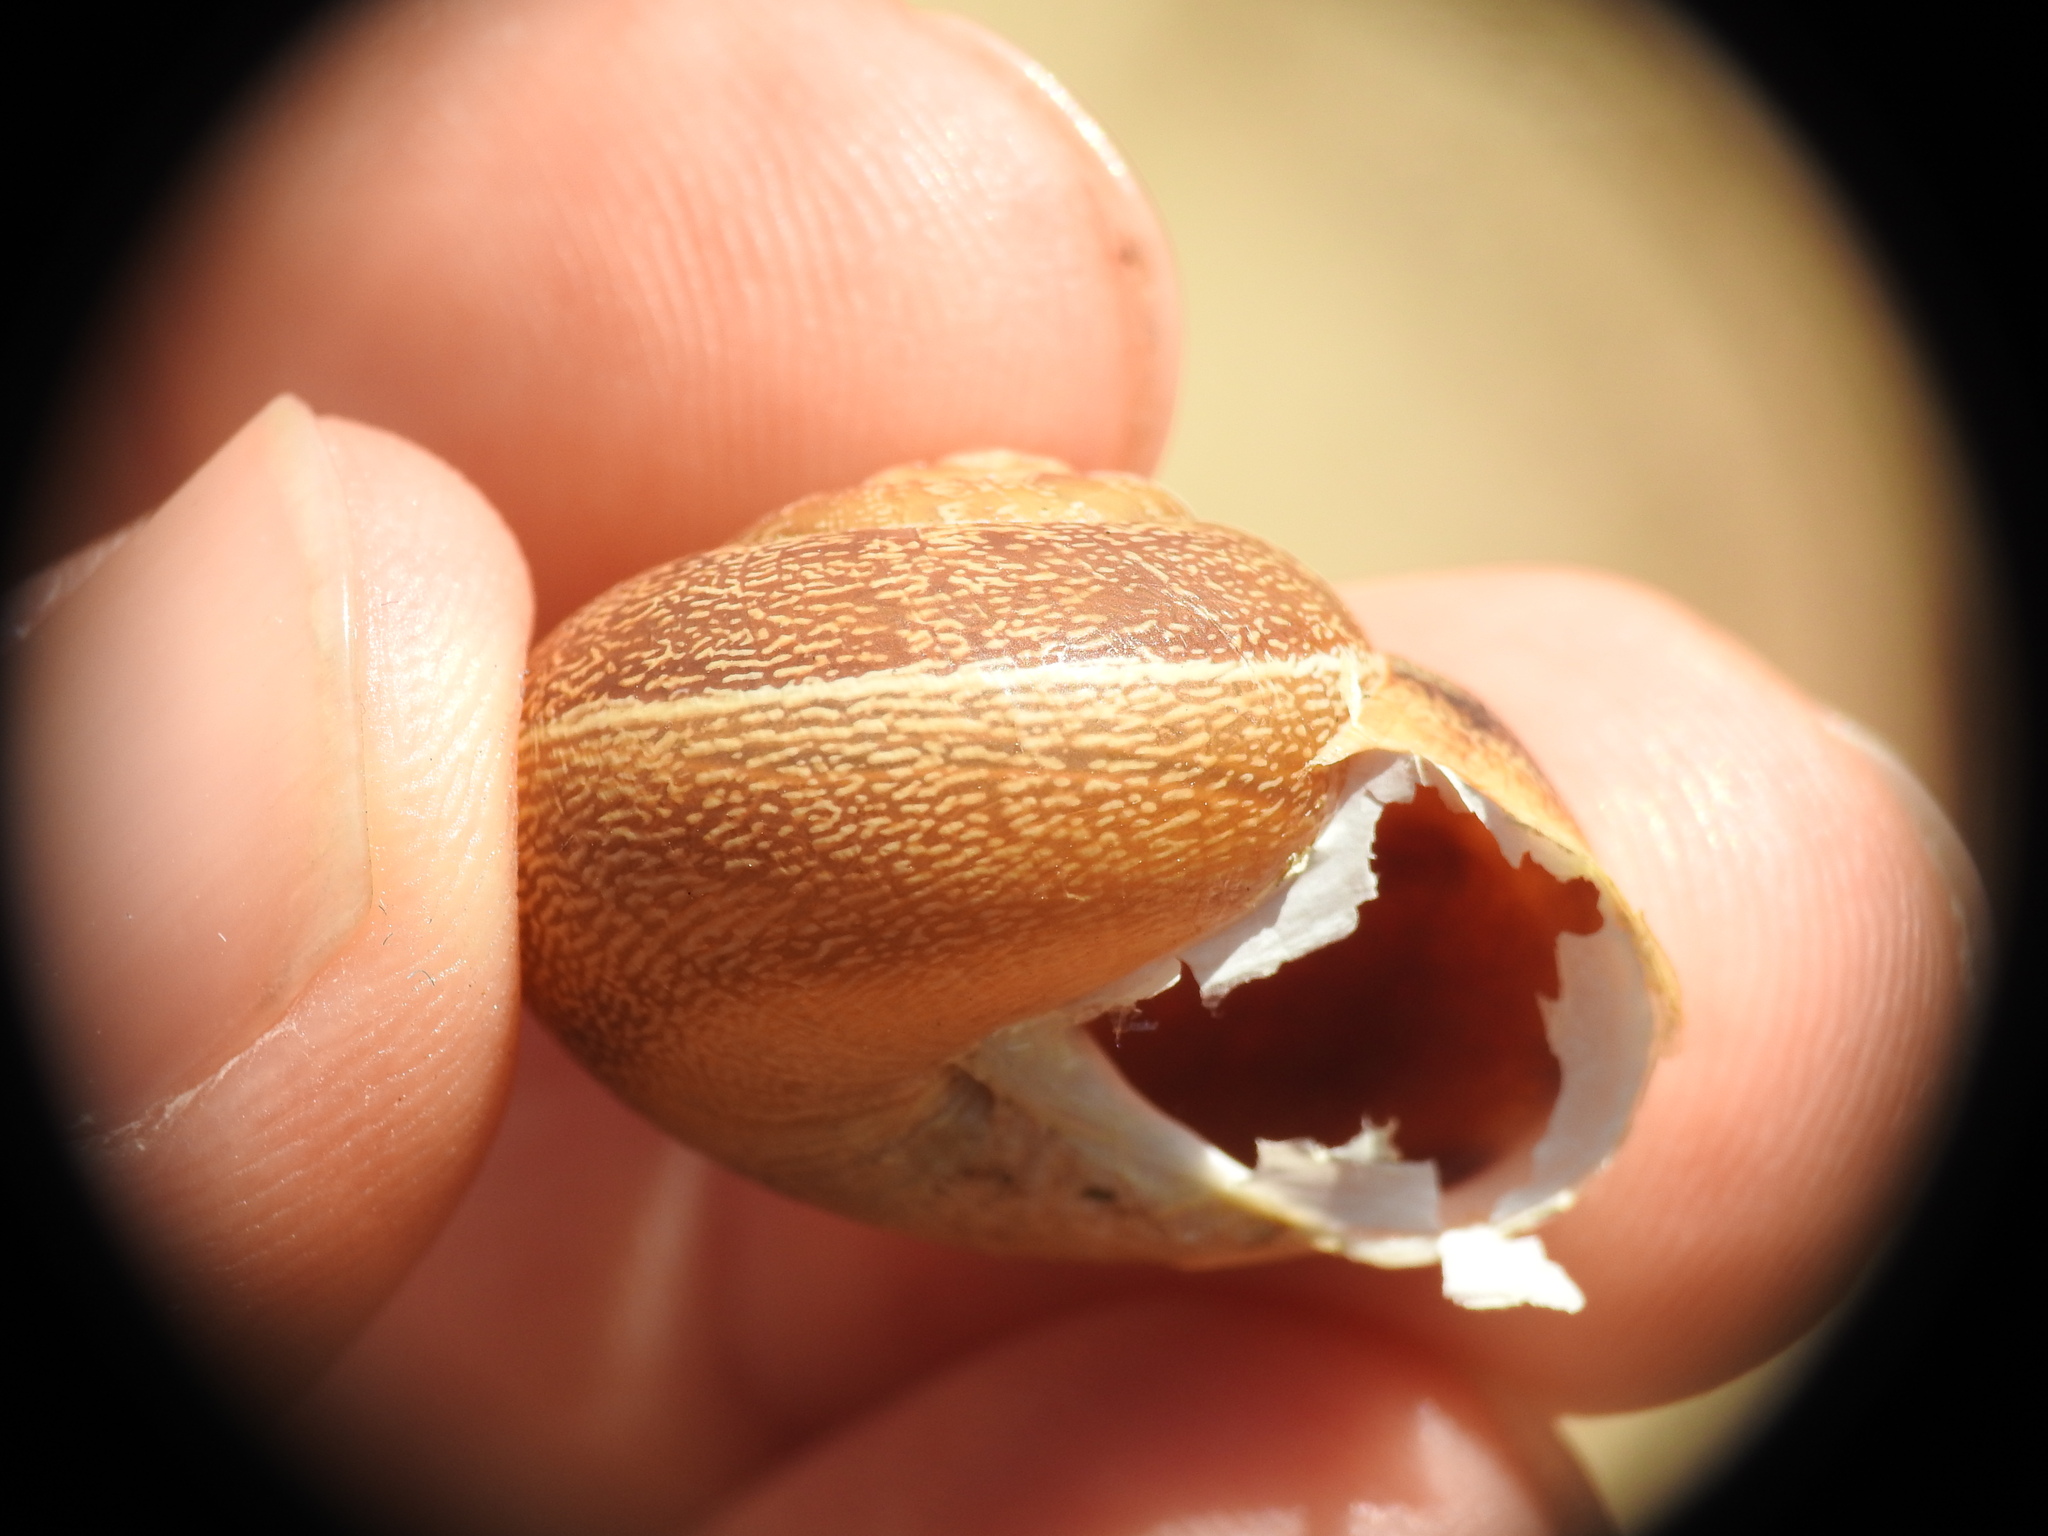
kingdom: Animalia
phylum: Mollusca
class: Gastropoda
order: Stylommatophora
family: Helicidae
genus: Eobania
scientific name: Eobania vermiculata
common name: Chocolateband snail
